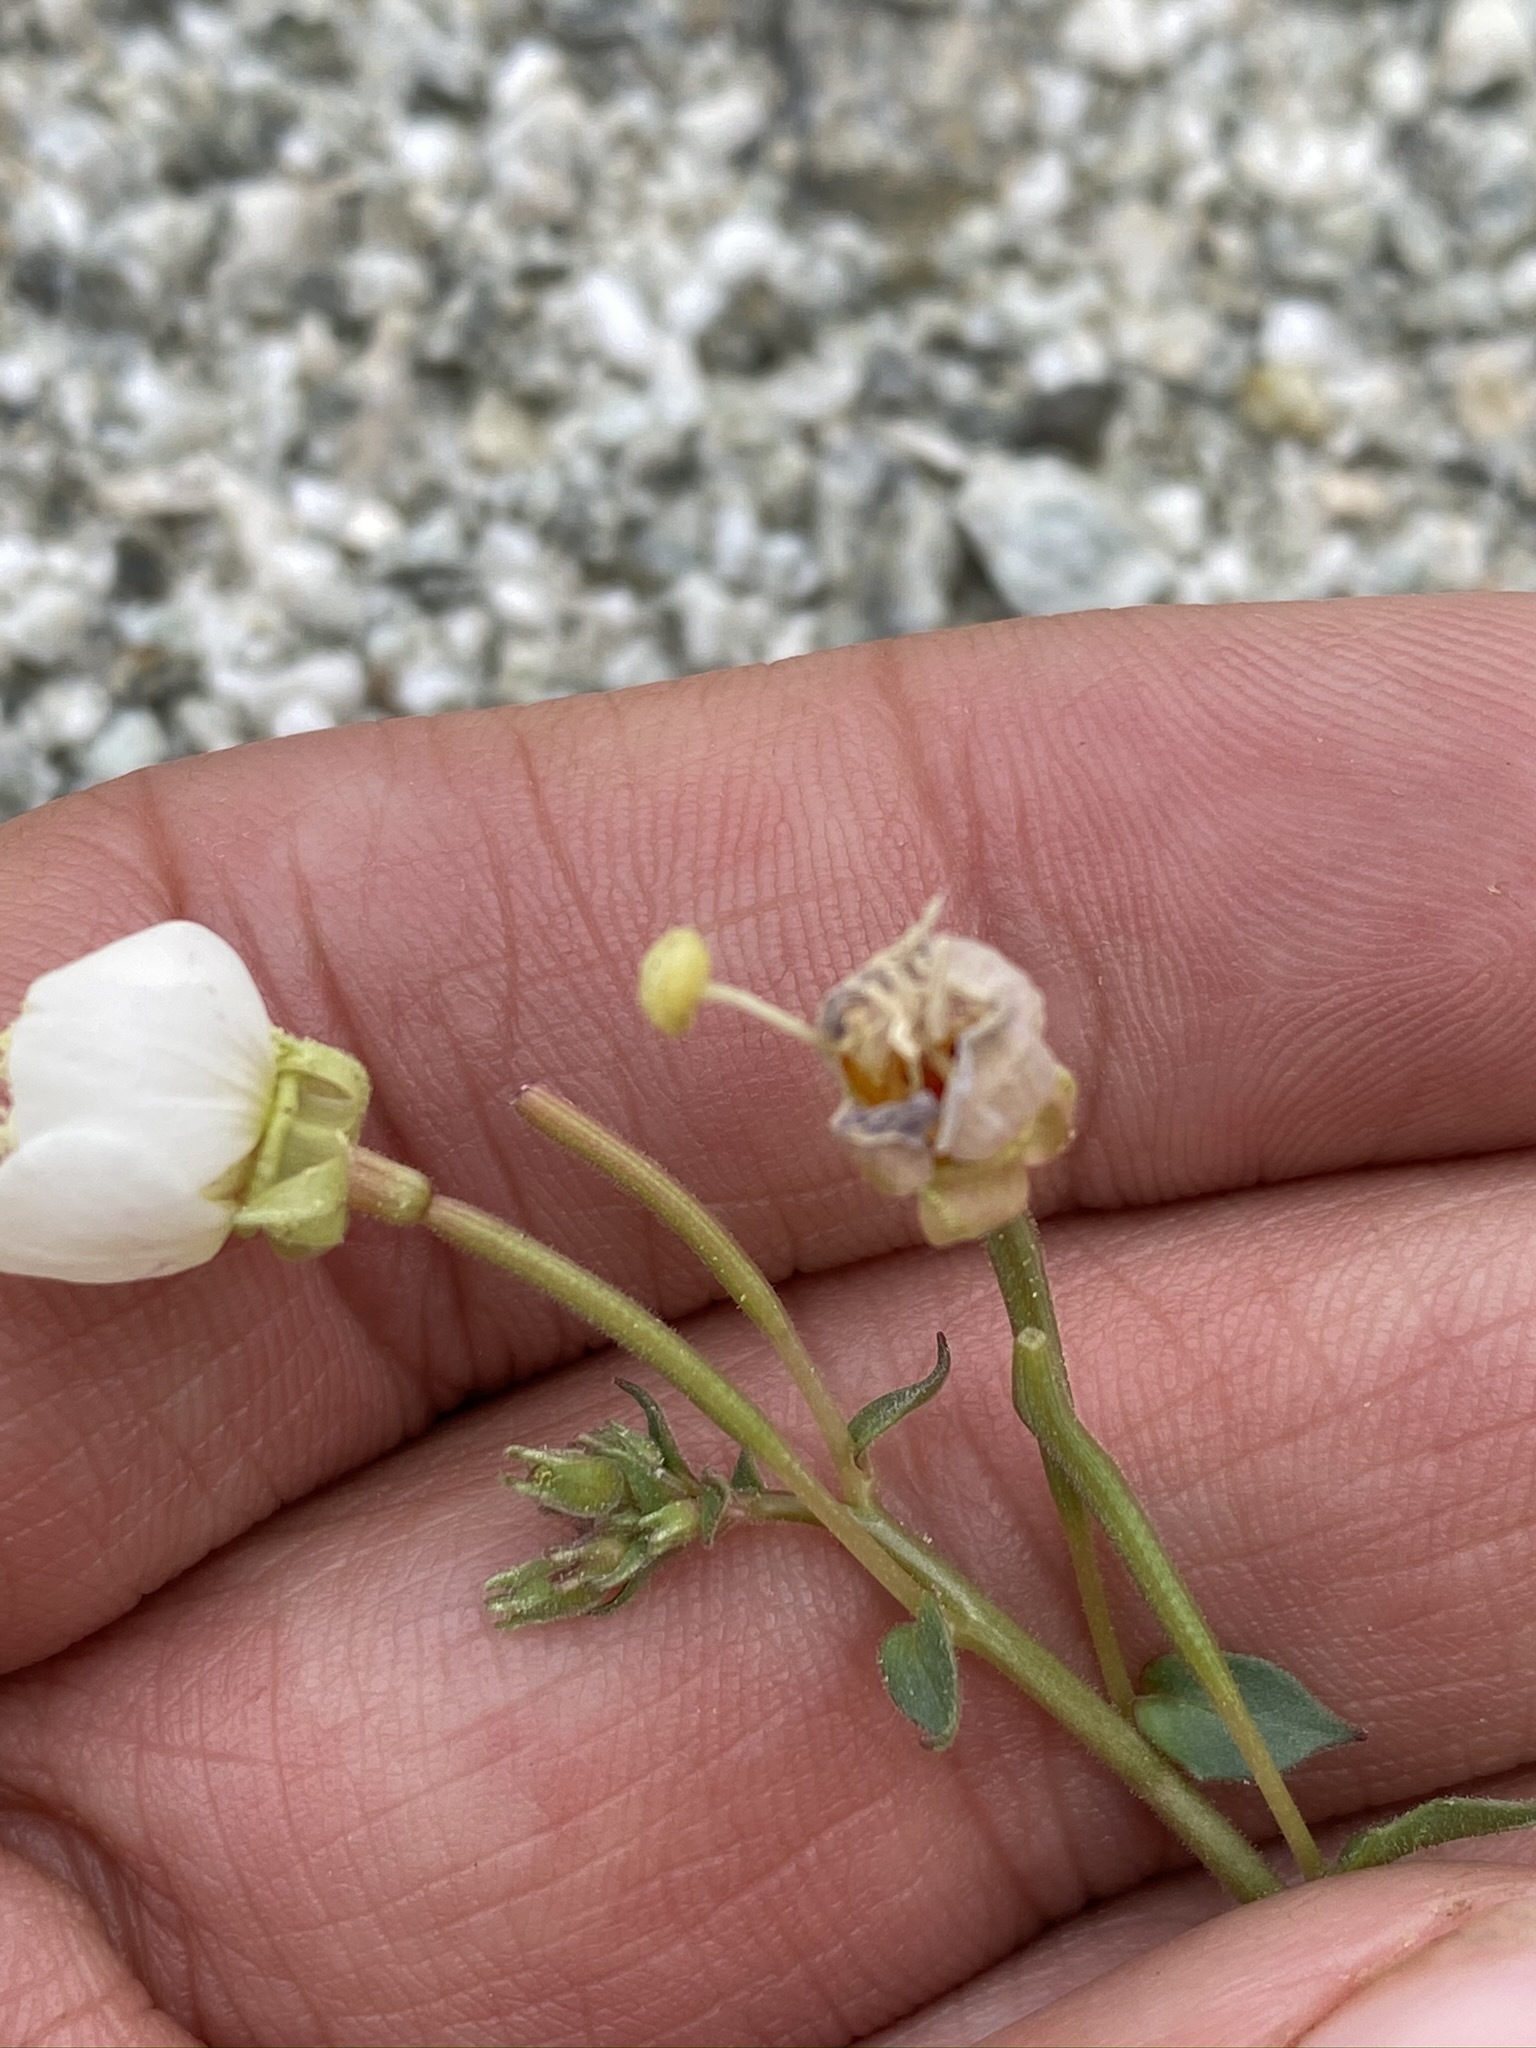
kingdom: Plantae
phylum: Tracheophyta
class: Magnoliopsida
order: Myrtales
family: Onagraceae
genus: Chylismia
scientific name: Chylismia claviformis
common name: Browneyes
